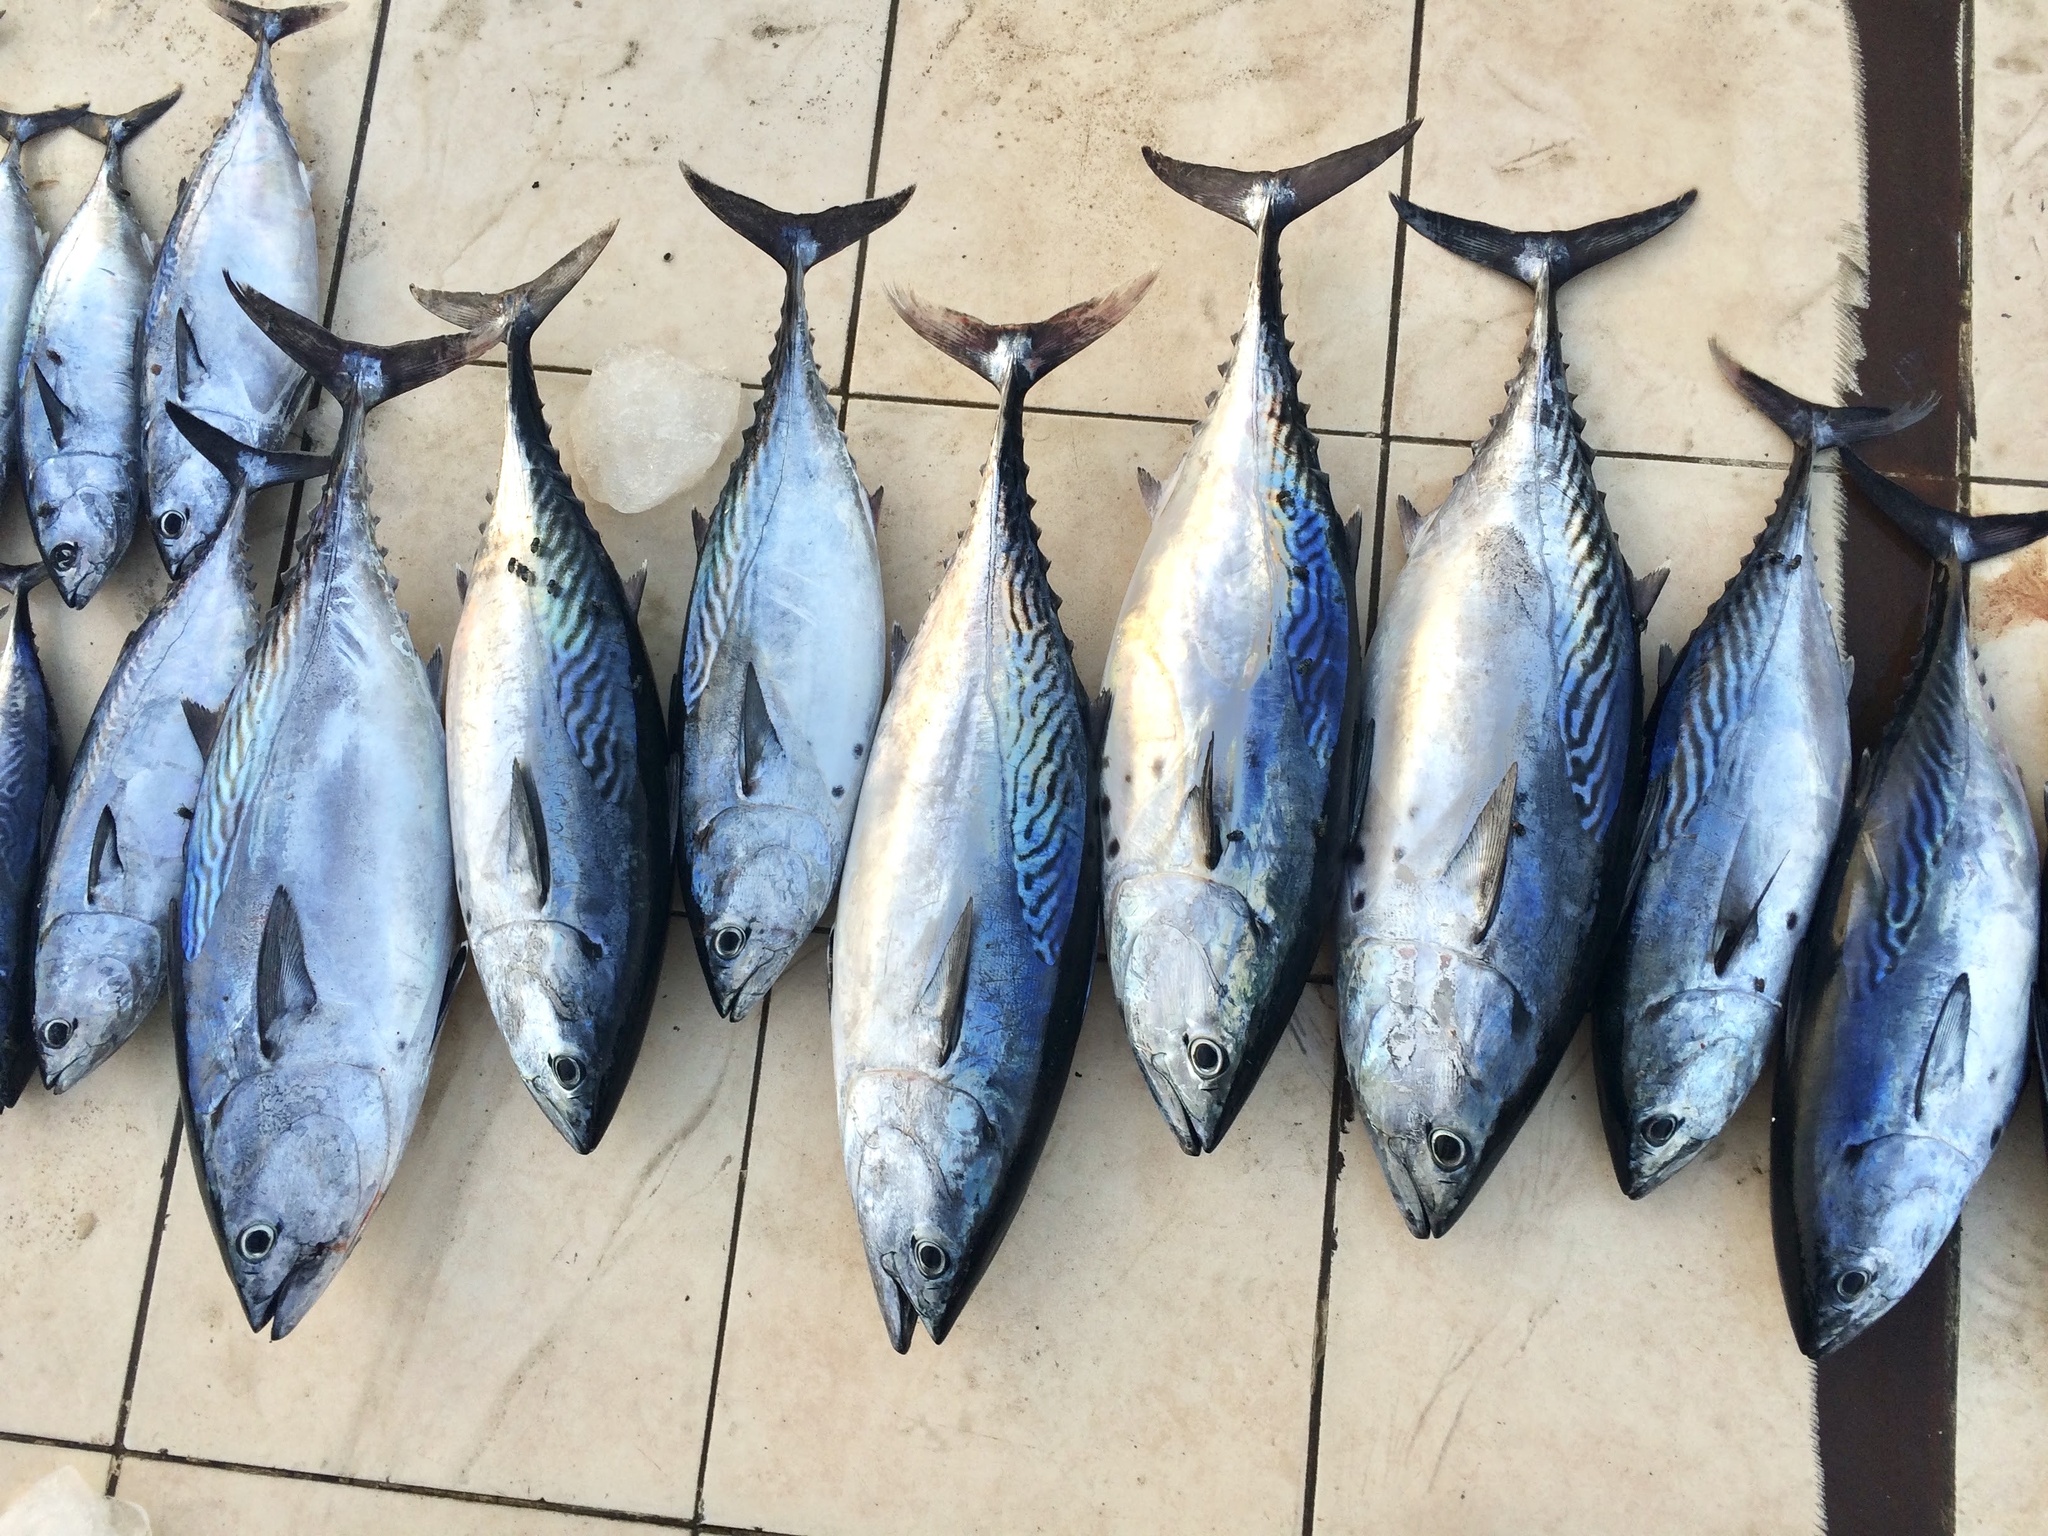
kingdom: Animalia
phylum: Chordata
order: Perciformes
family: Scombridae
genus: Euthynnus
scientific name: Euthynnus affinis
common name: Mackerel tuna
